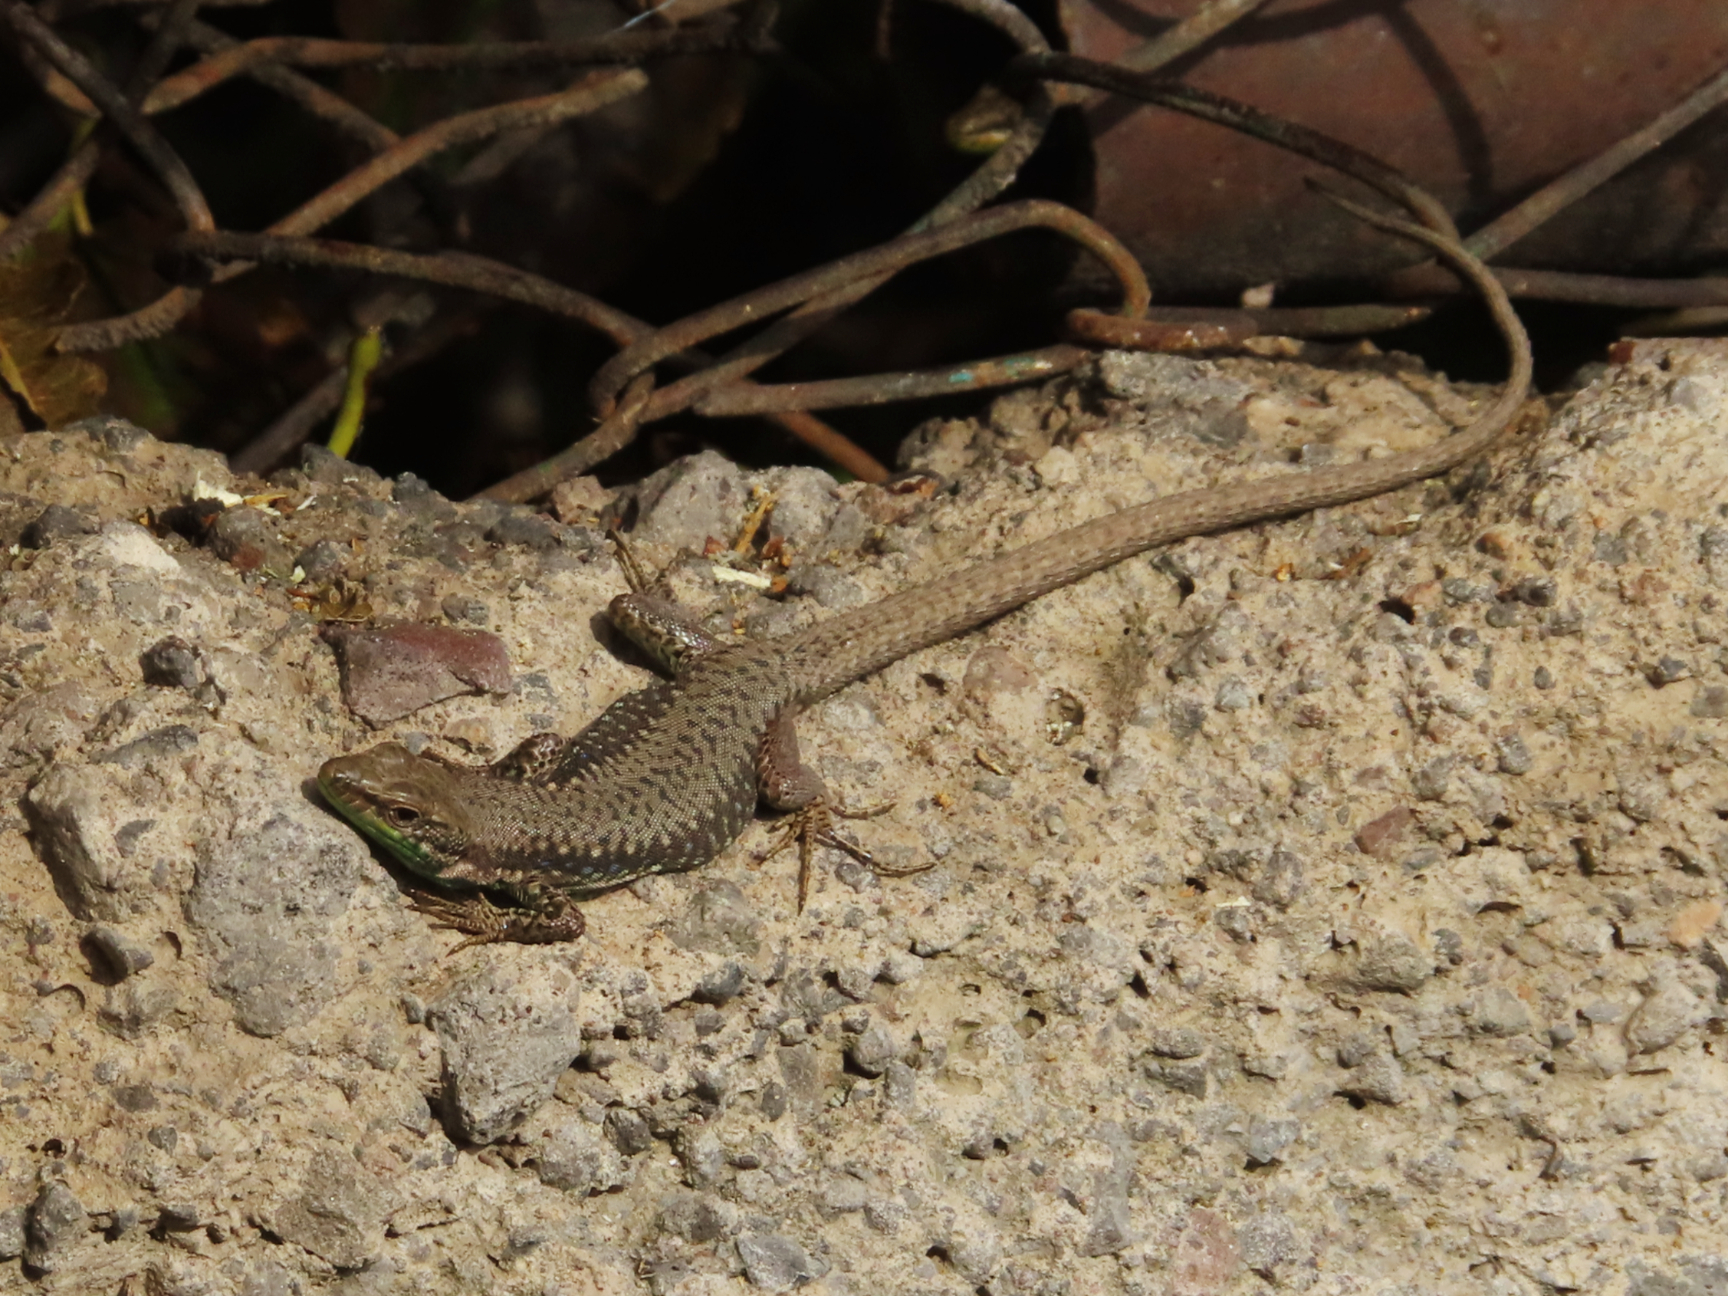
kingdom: Animalia
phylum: Chordata
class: Squamata
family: Lacertidae
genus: Darevskia
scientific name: Darevskia raddei
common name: Radde's lizard
